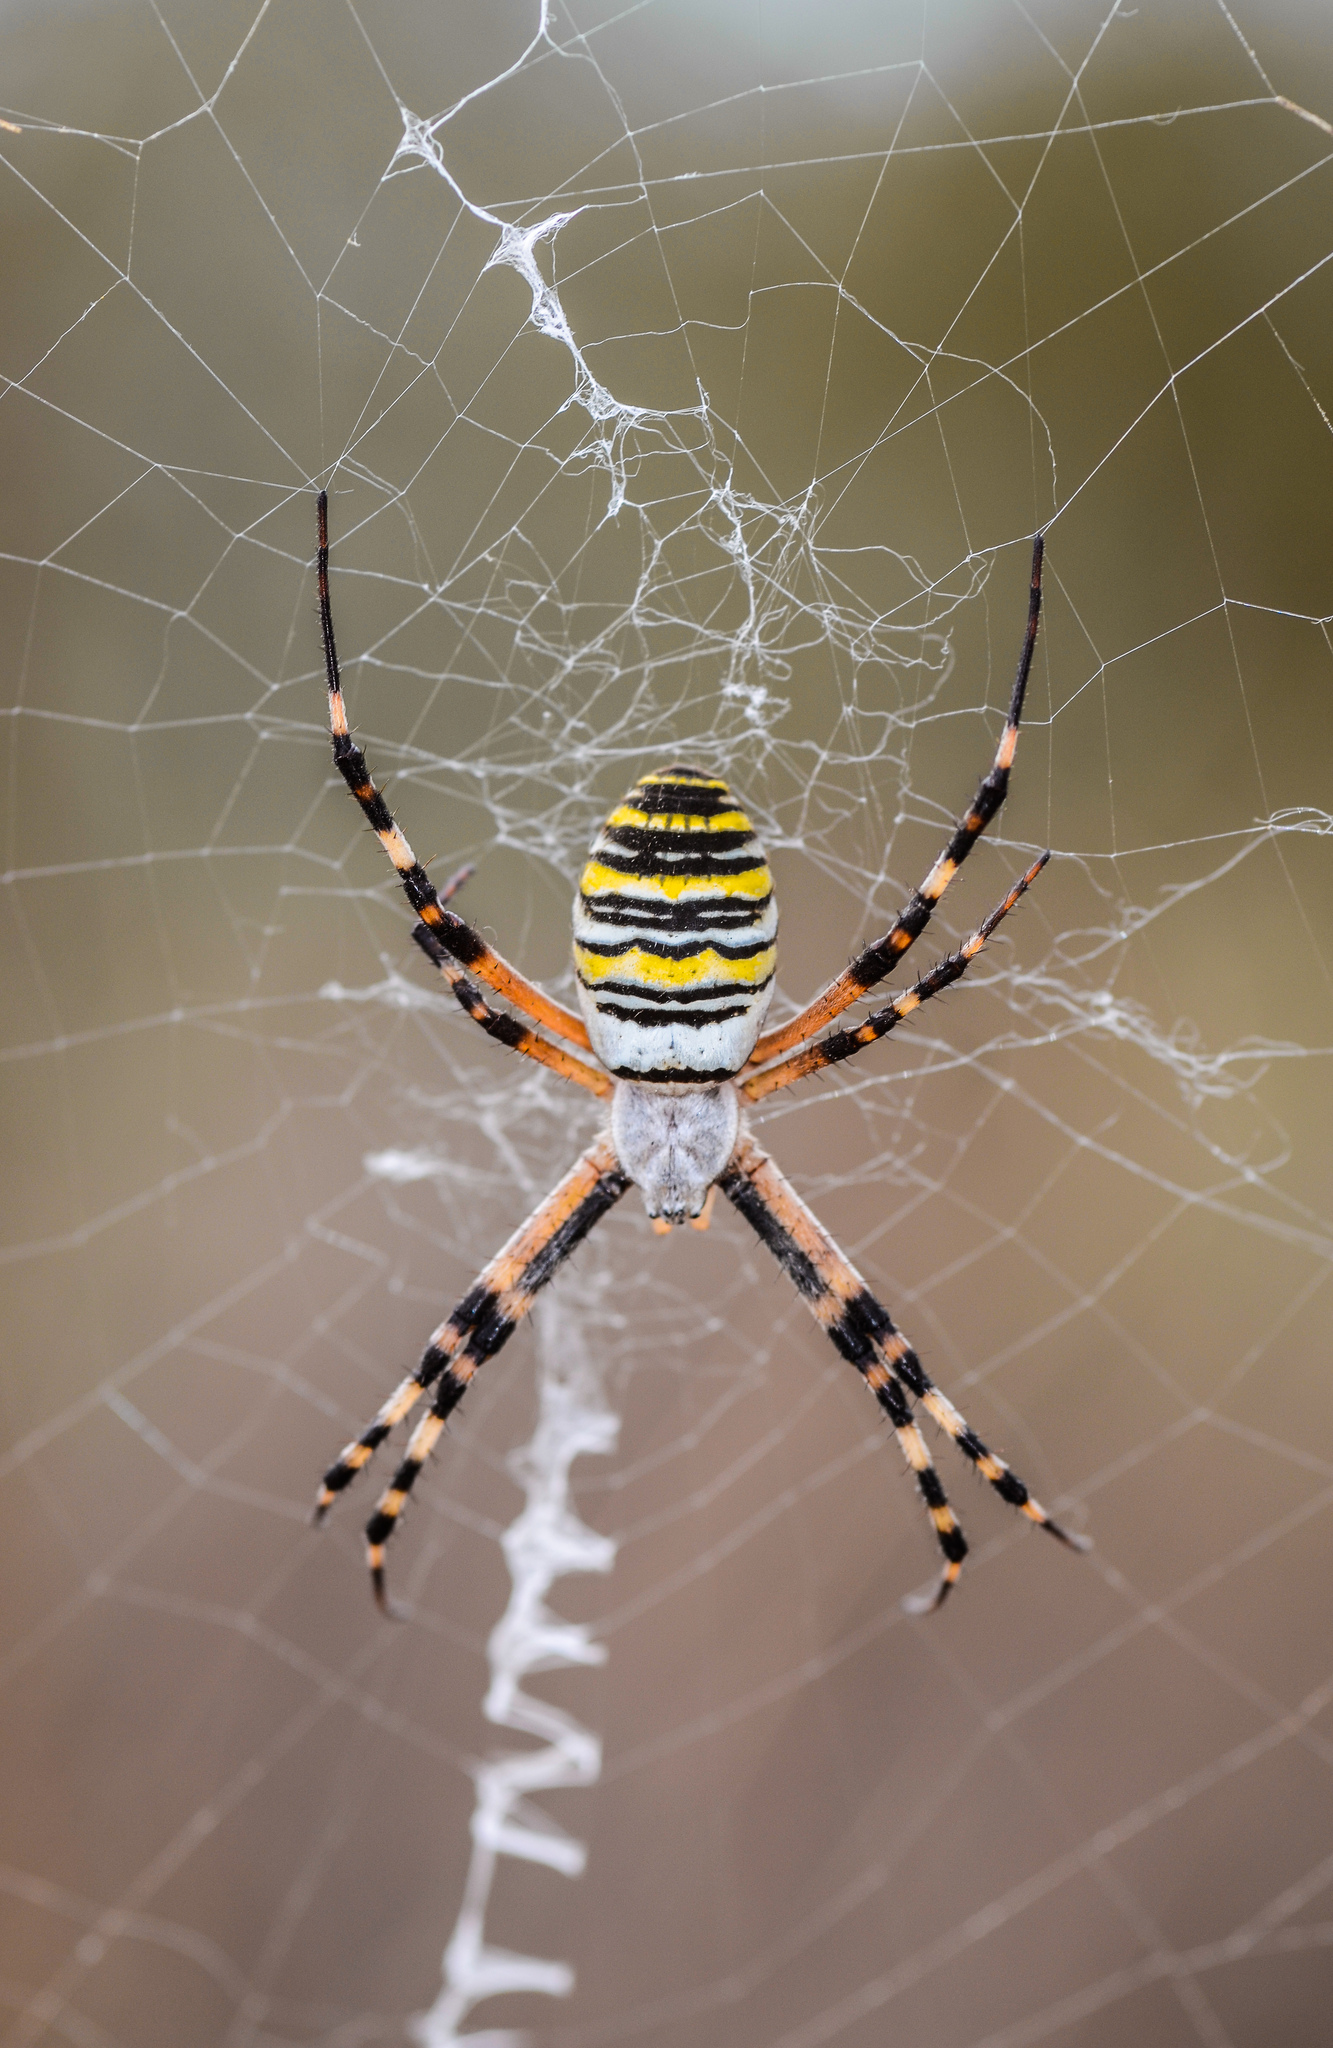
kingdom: Animalia
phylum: Arthropoda
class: Arachnida
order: Araneae
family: Araneidae
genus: Argiope
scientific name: Argiope bruennichi
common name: Wasp spider
